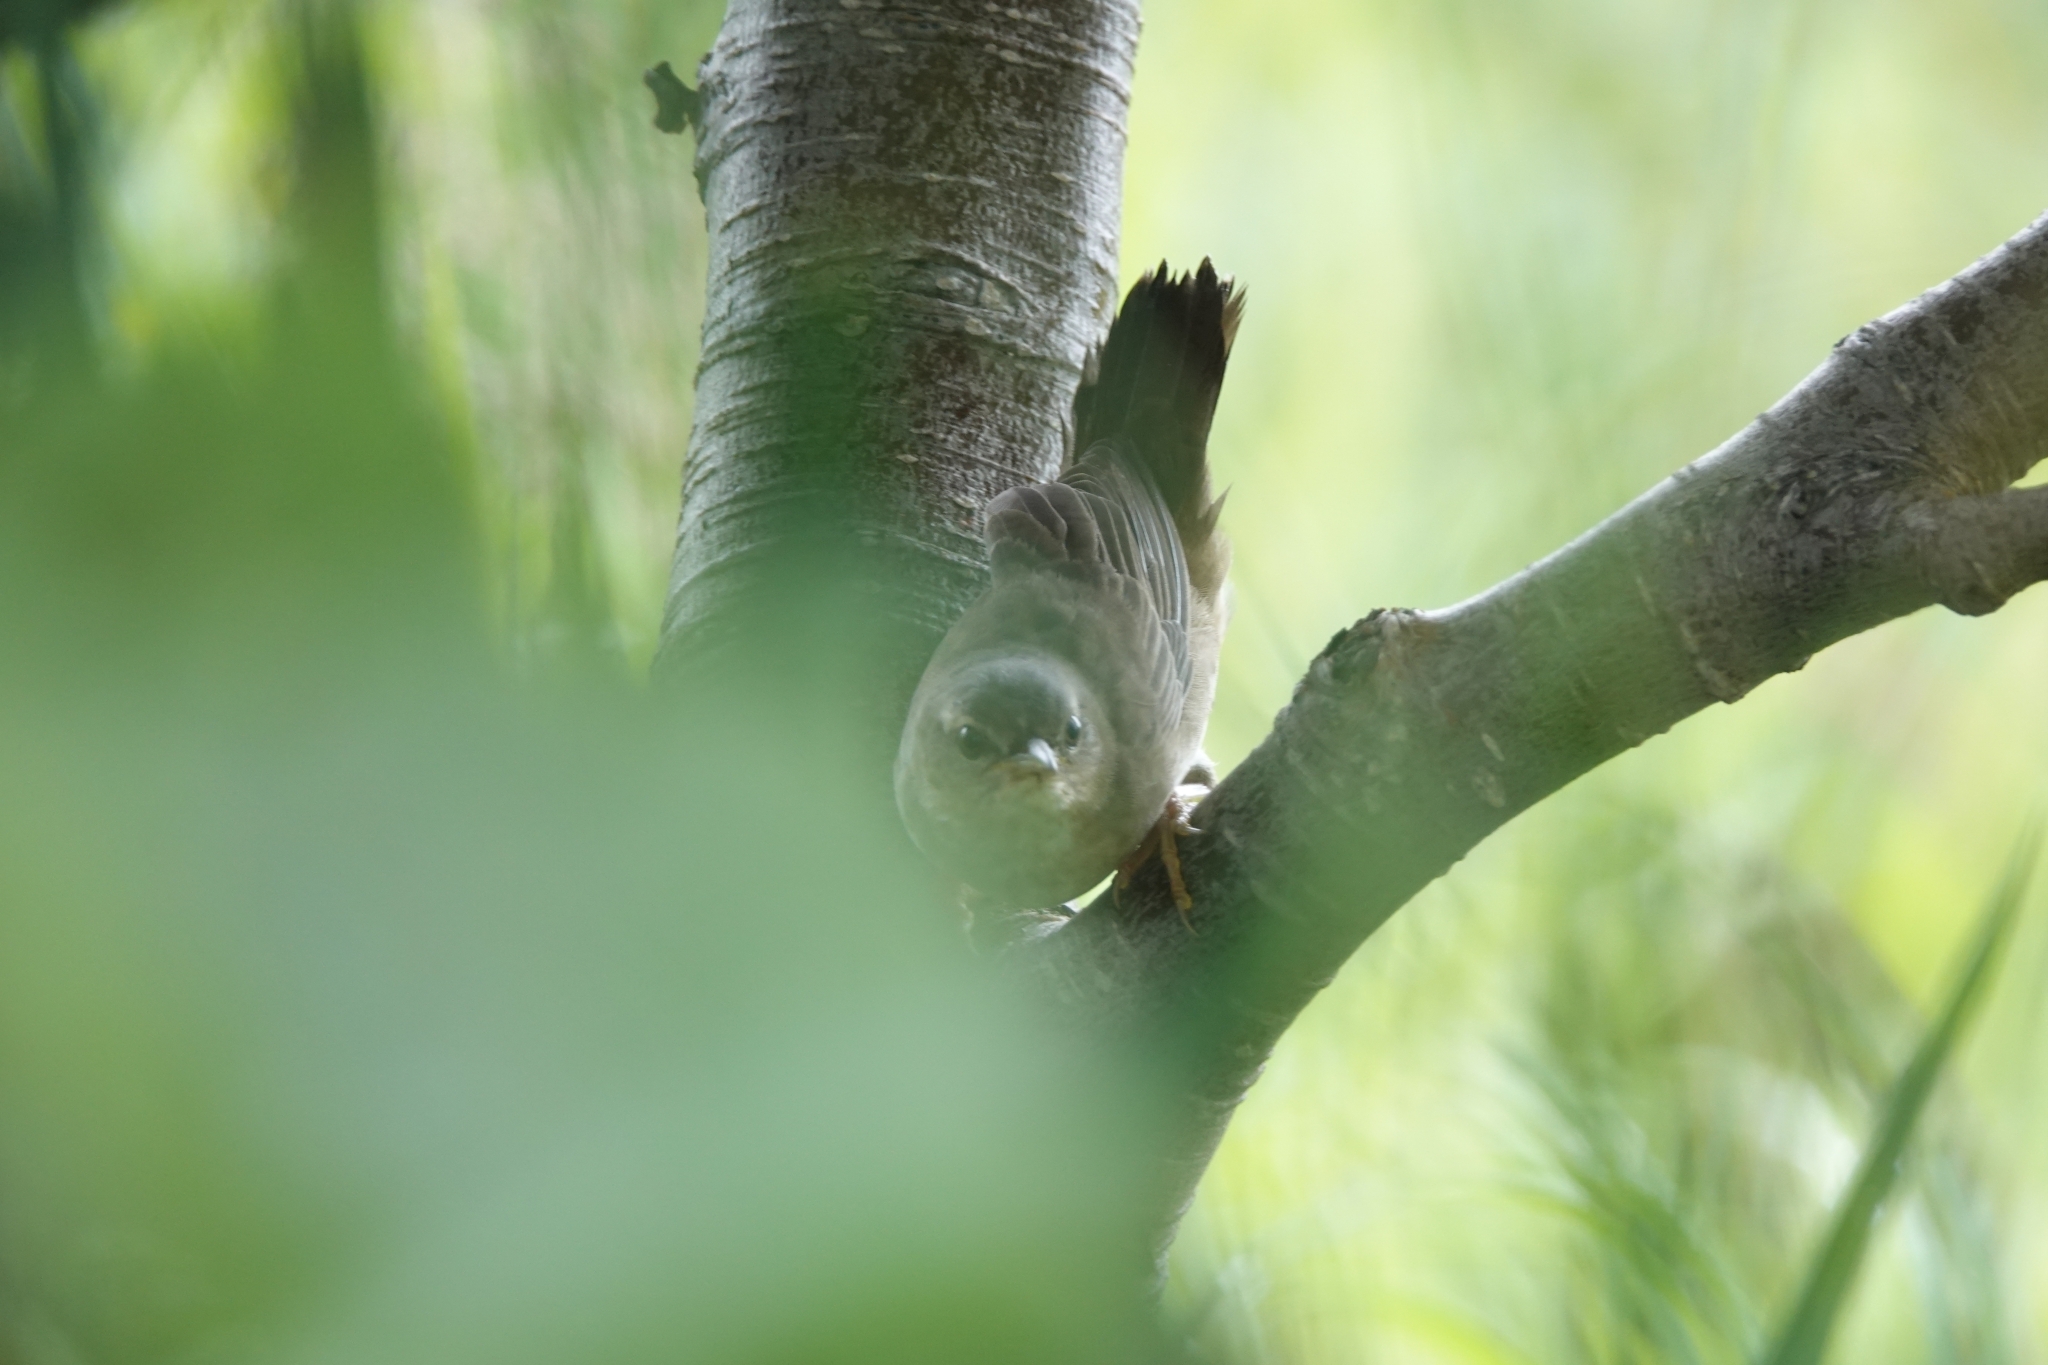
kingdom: Animalia
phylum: Chordata
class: Aves
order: Passeriformes
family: Locustellidae
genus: Locustella
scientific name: Locustella ochotensis
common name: Middendorff's grasshopper-warbler
